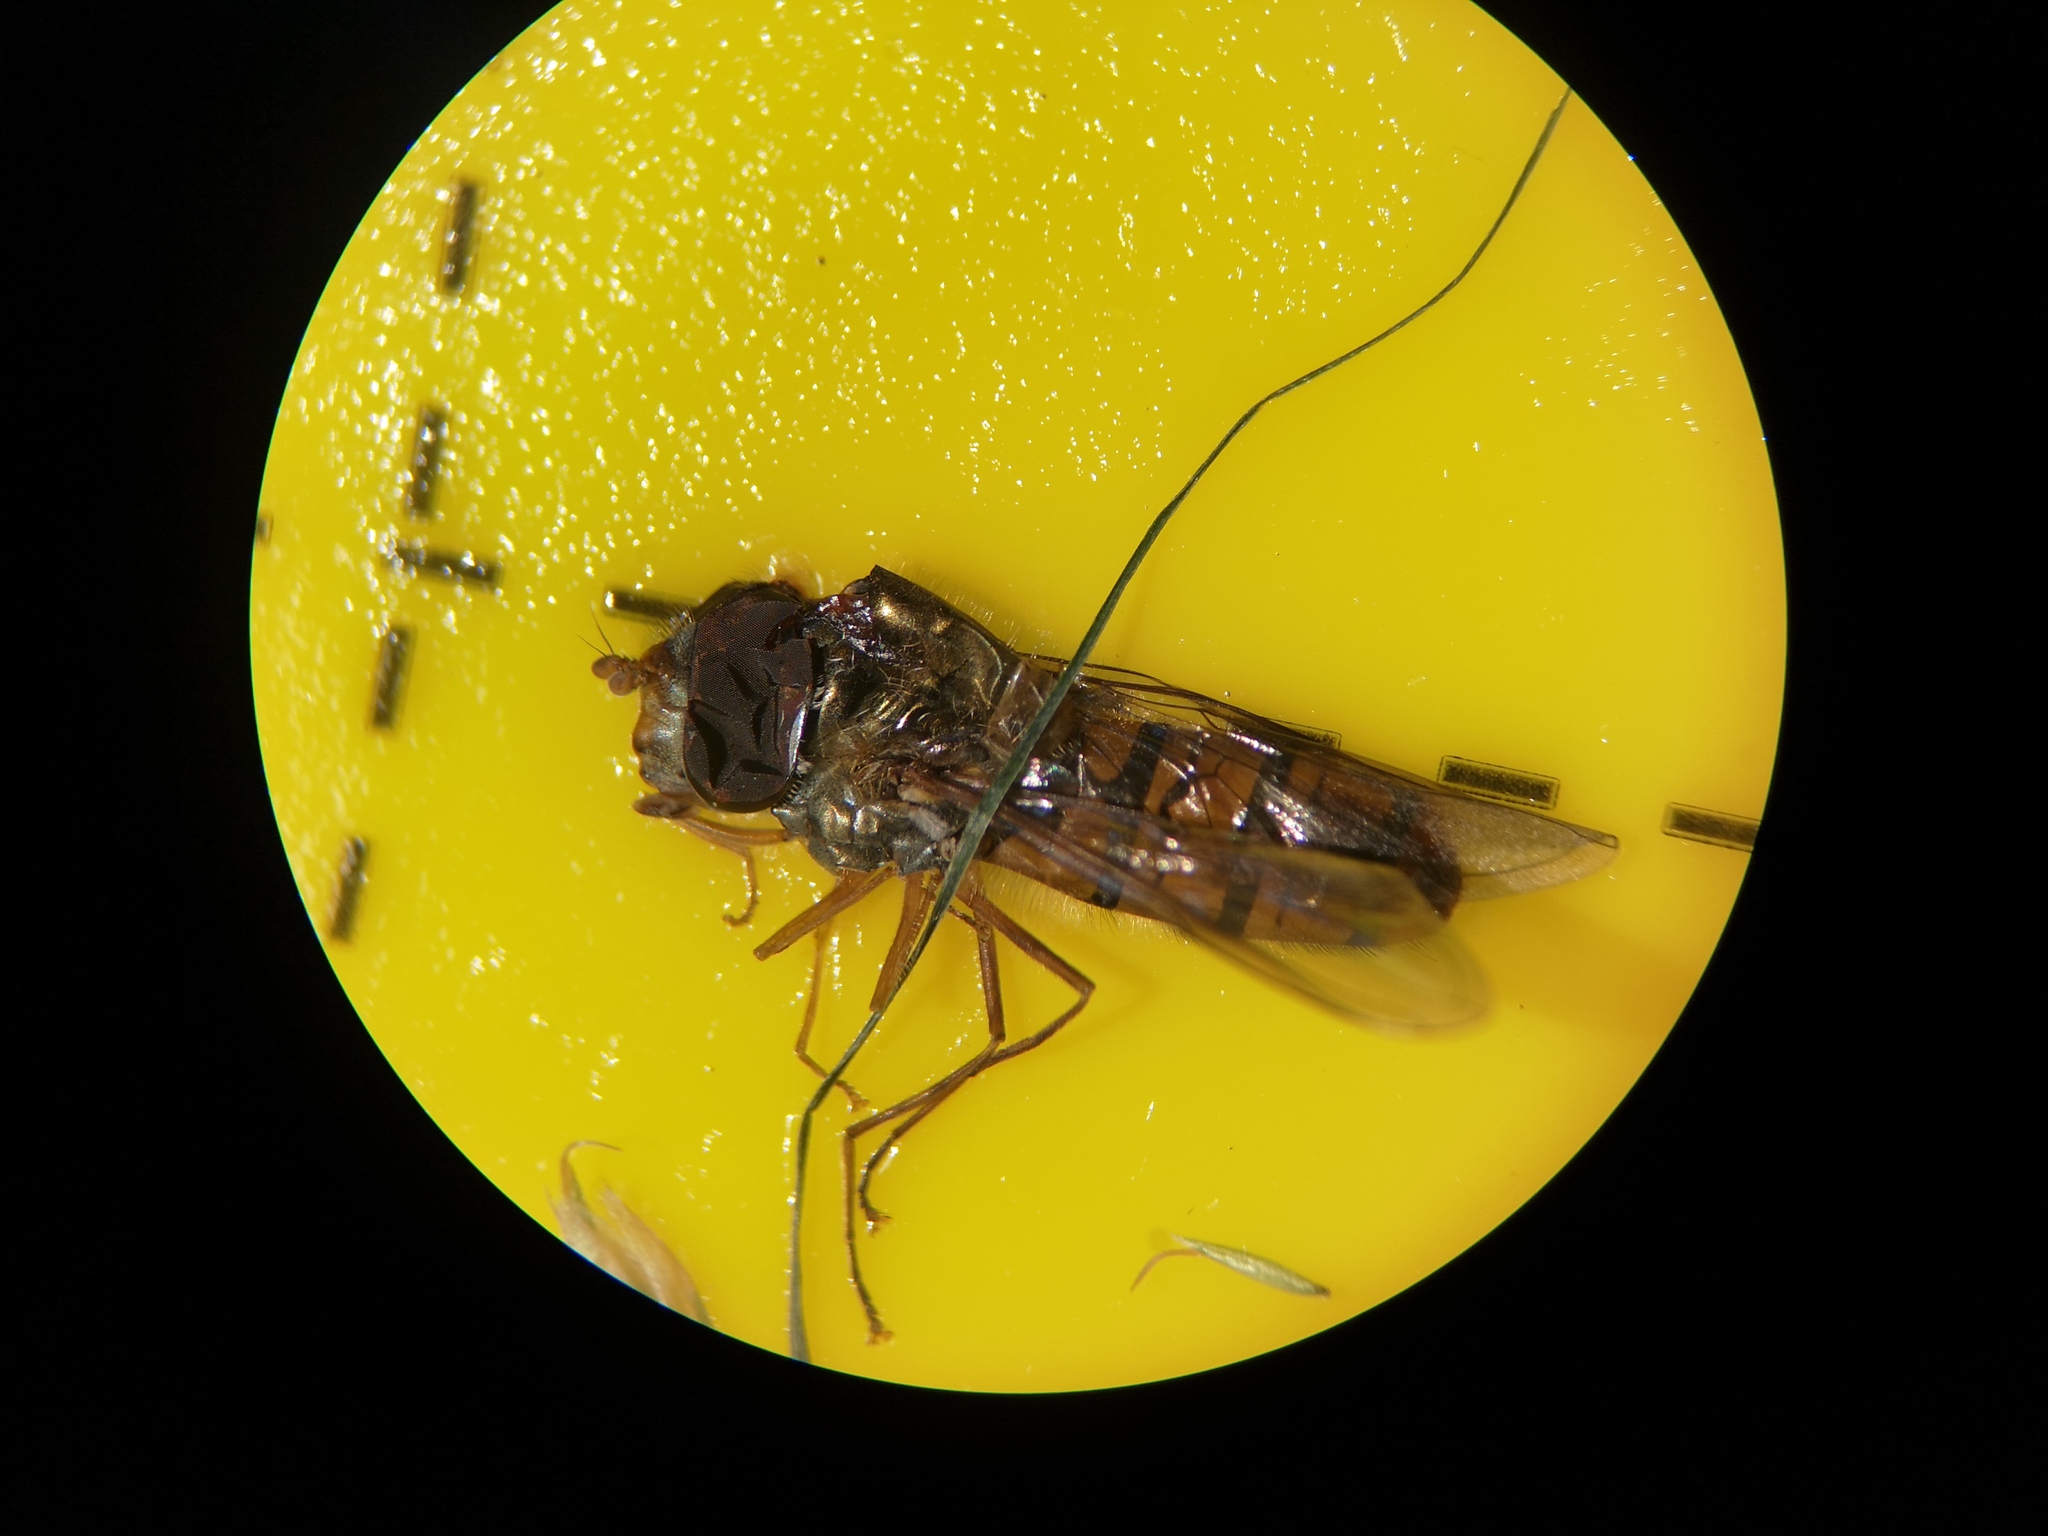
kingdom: Animalia
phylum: Arthropoda
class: Insecta
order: Diptera
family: Syrphidae
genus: Episyrphus
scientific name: Episyrphus balteatus
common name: Marmalade hoverfly
